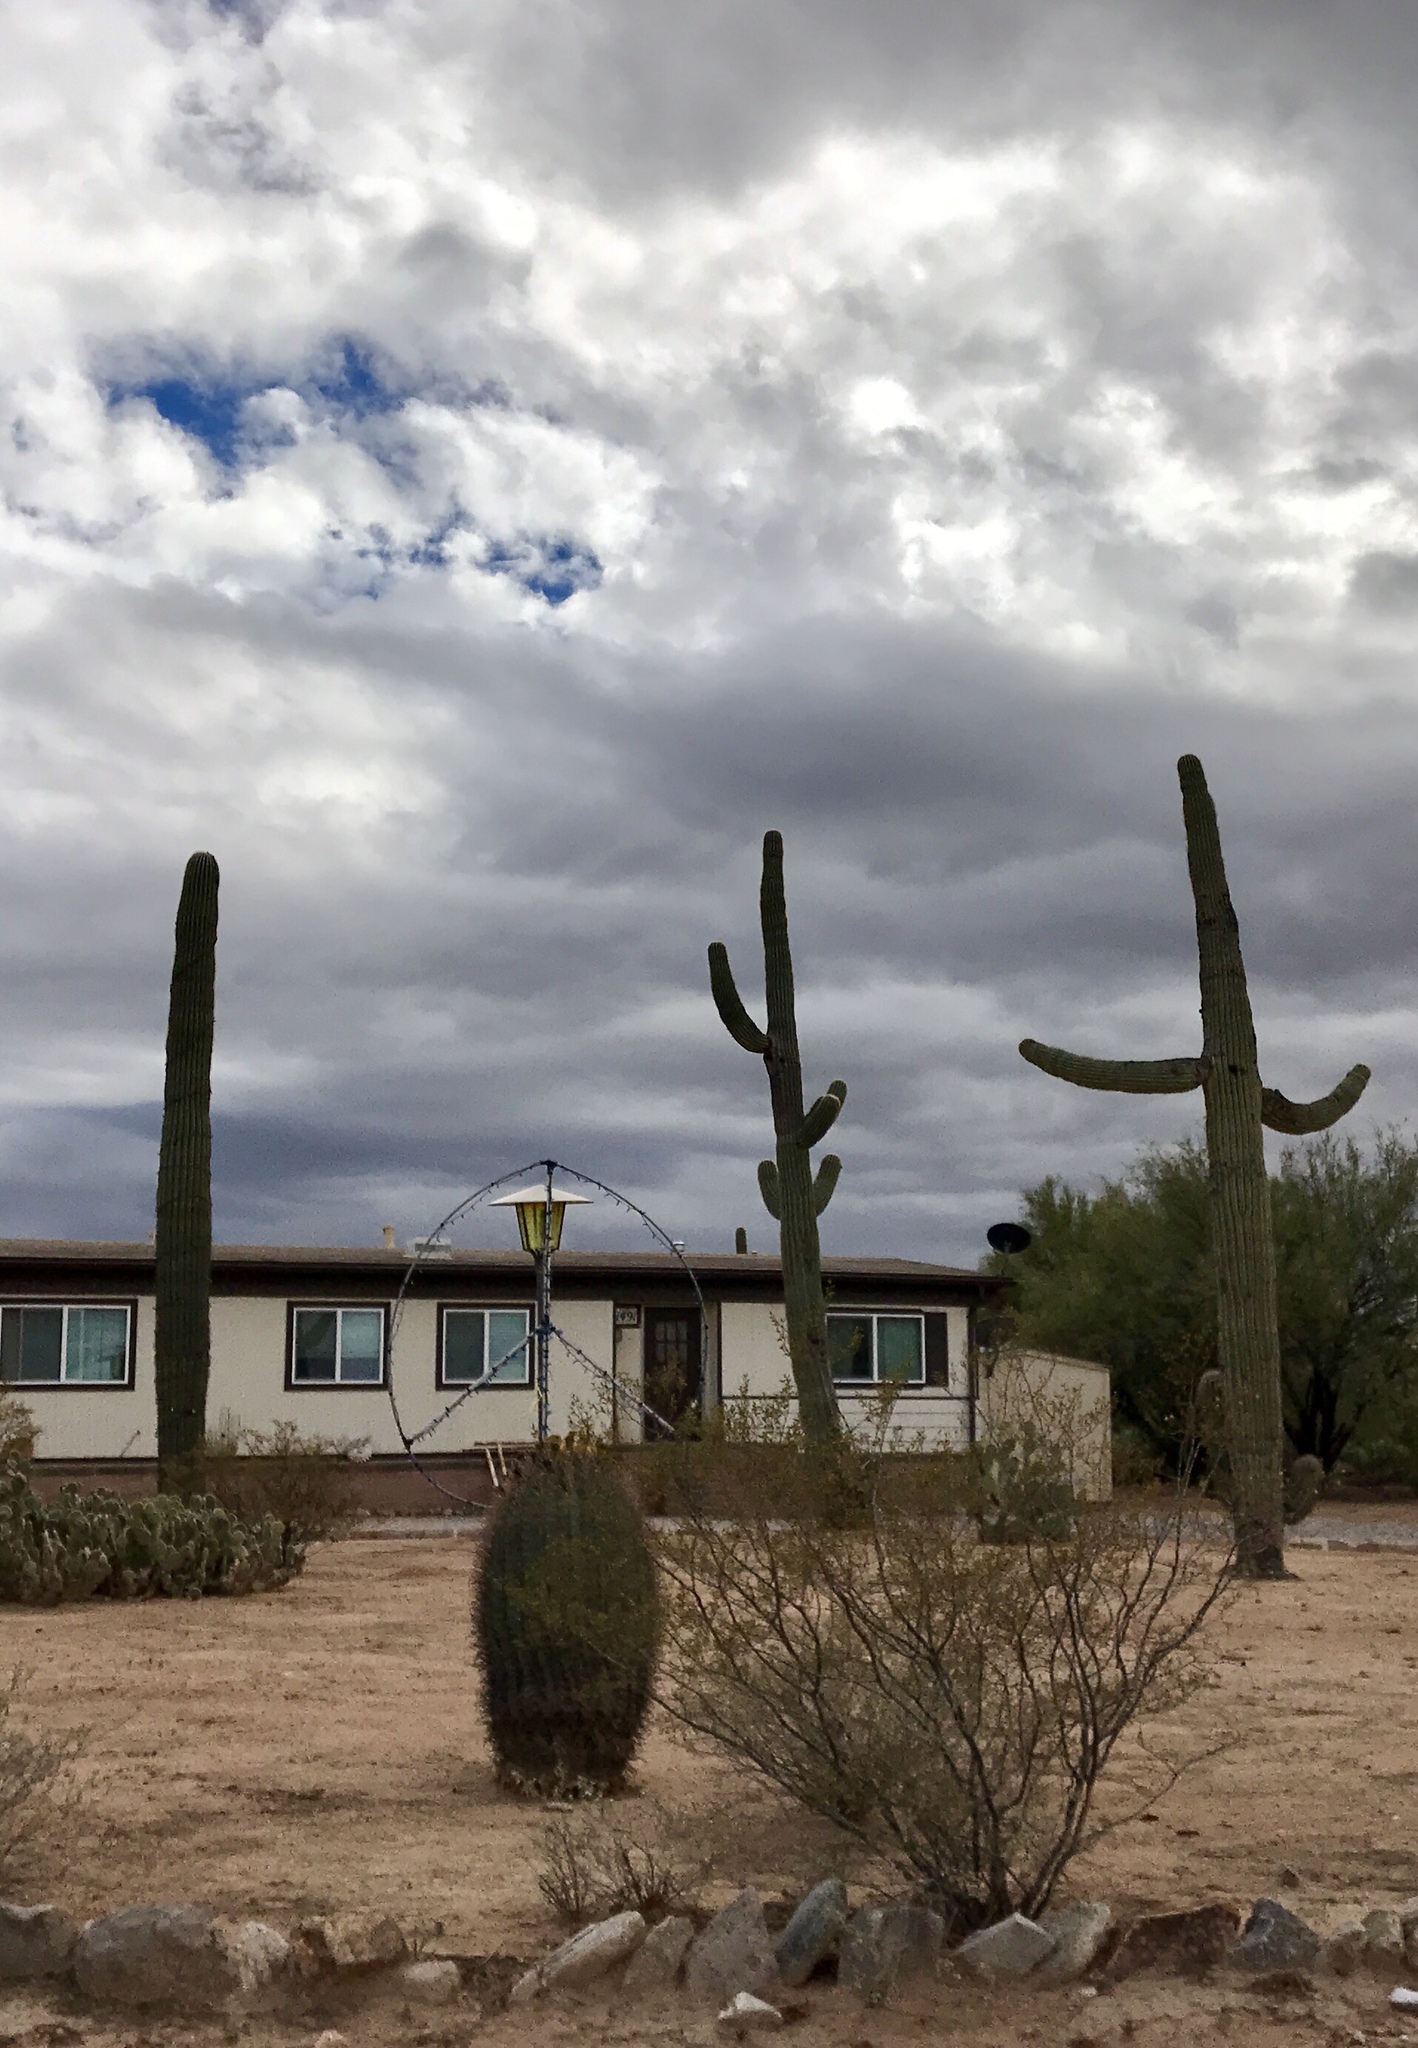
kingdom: Plantae
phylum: Tracheophyta
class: Magnoliopsida
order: Caryophyllales
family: Cactaceae
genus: Carnegiea
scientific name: Carnegiea gigantea
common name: Saguaro
